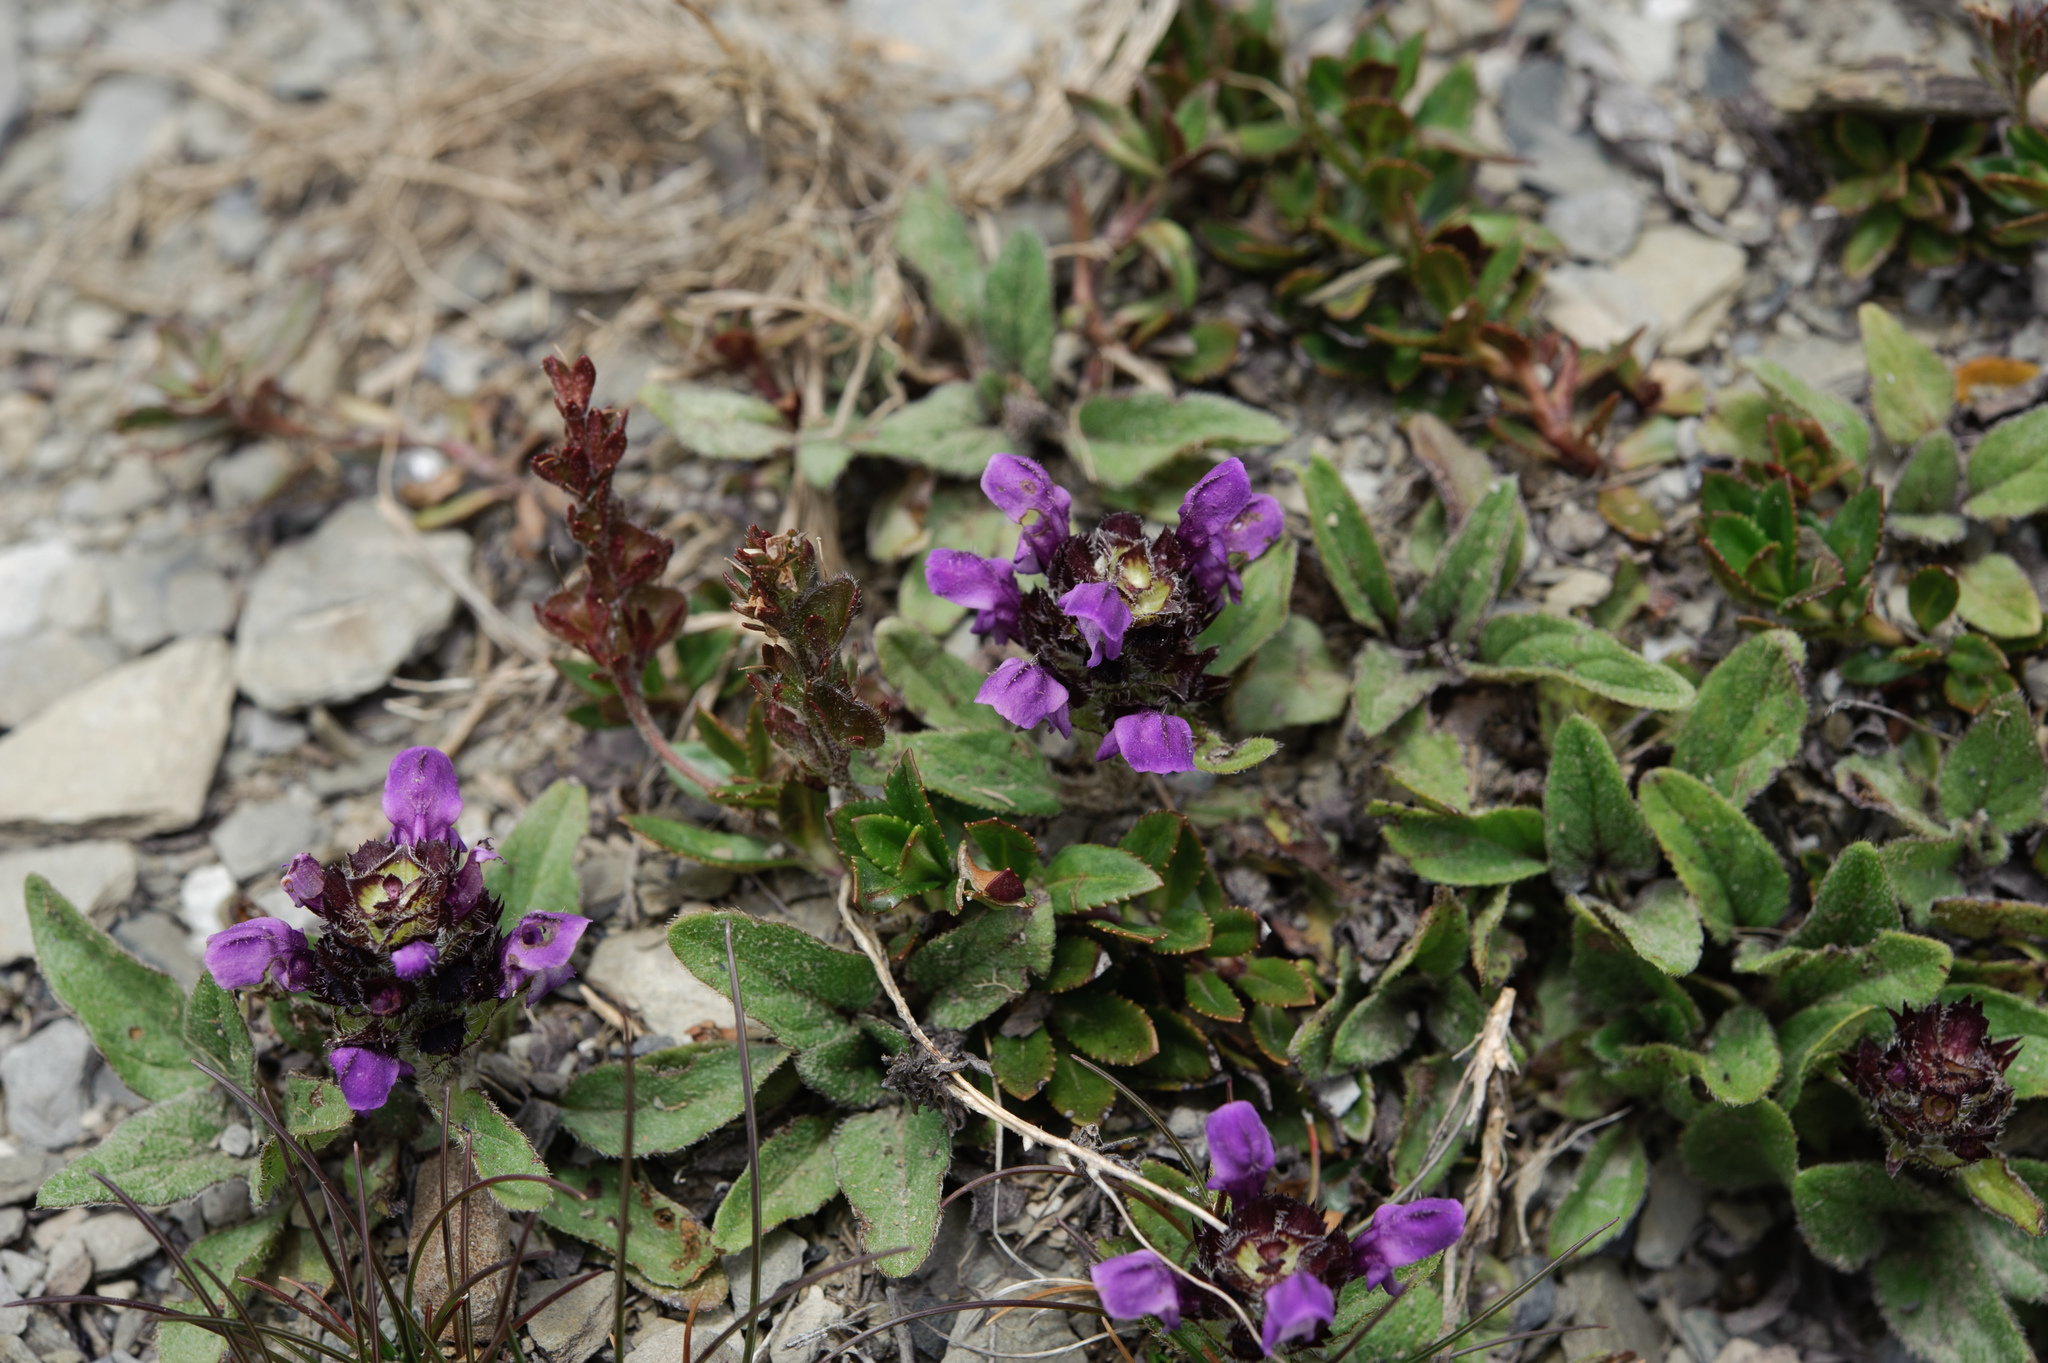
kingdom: Plantae
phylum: Tracheophyta
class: Magnoliopsida
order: Lamiales
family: Lamiaceae
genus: Prunella
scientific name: Prunella vulgaris
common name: Heal-all
